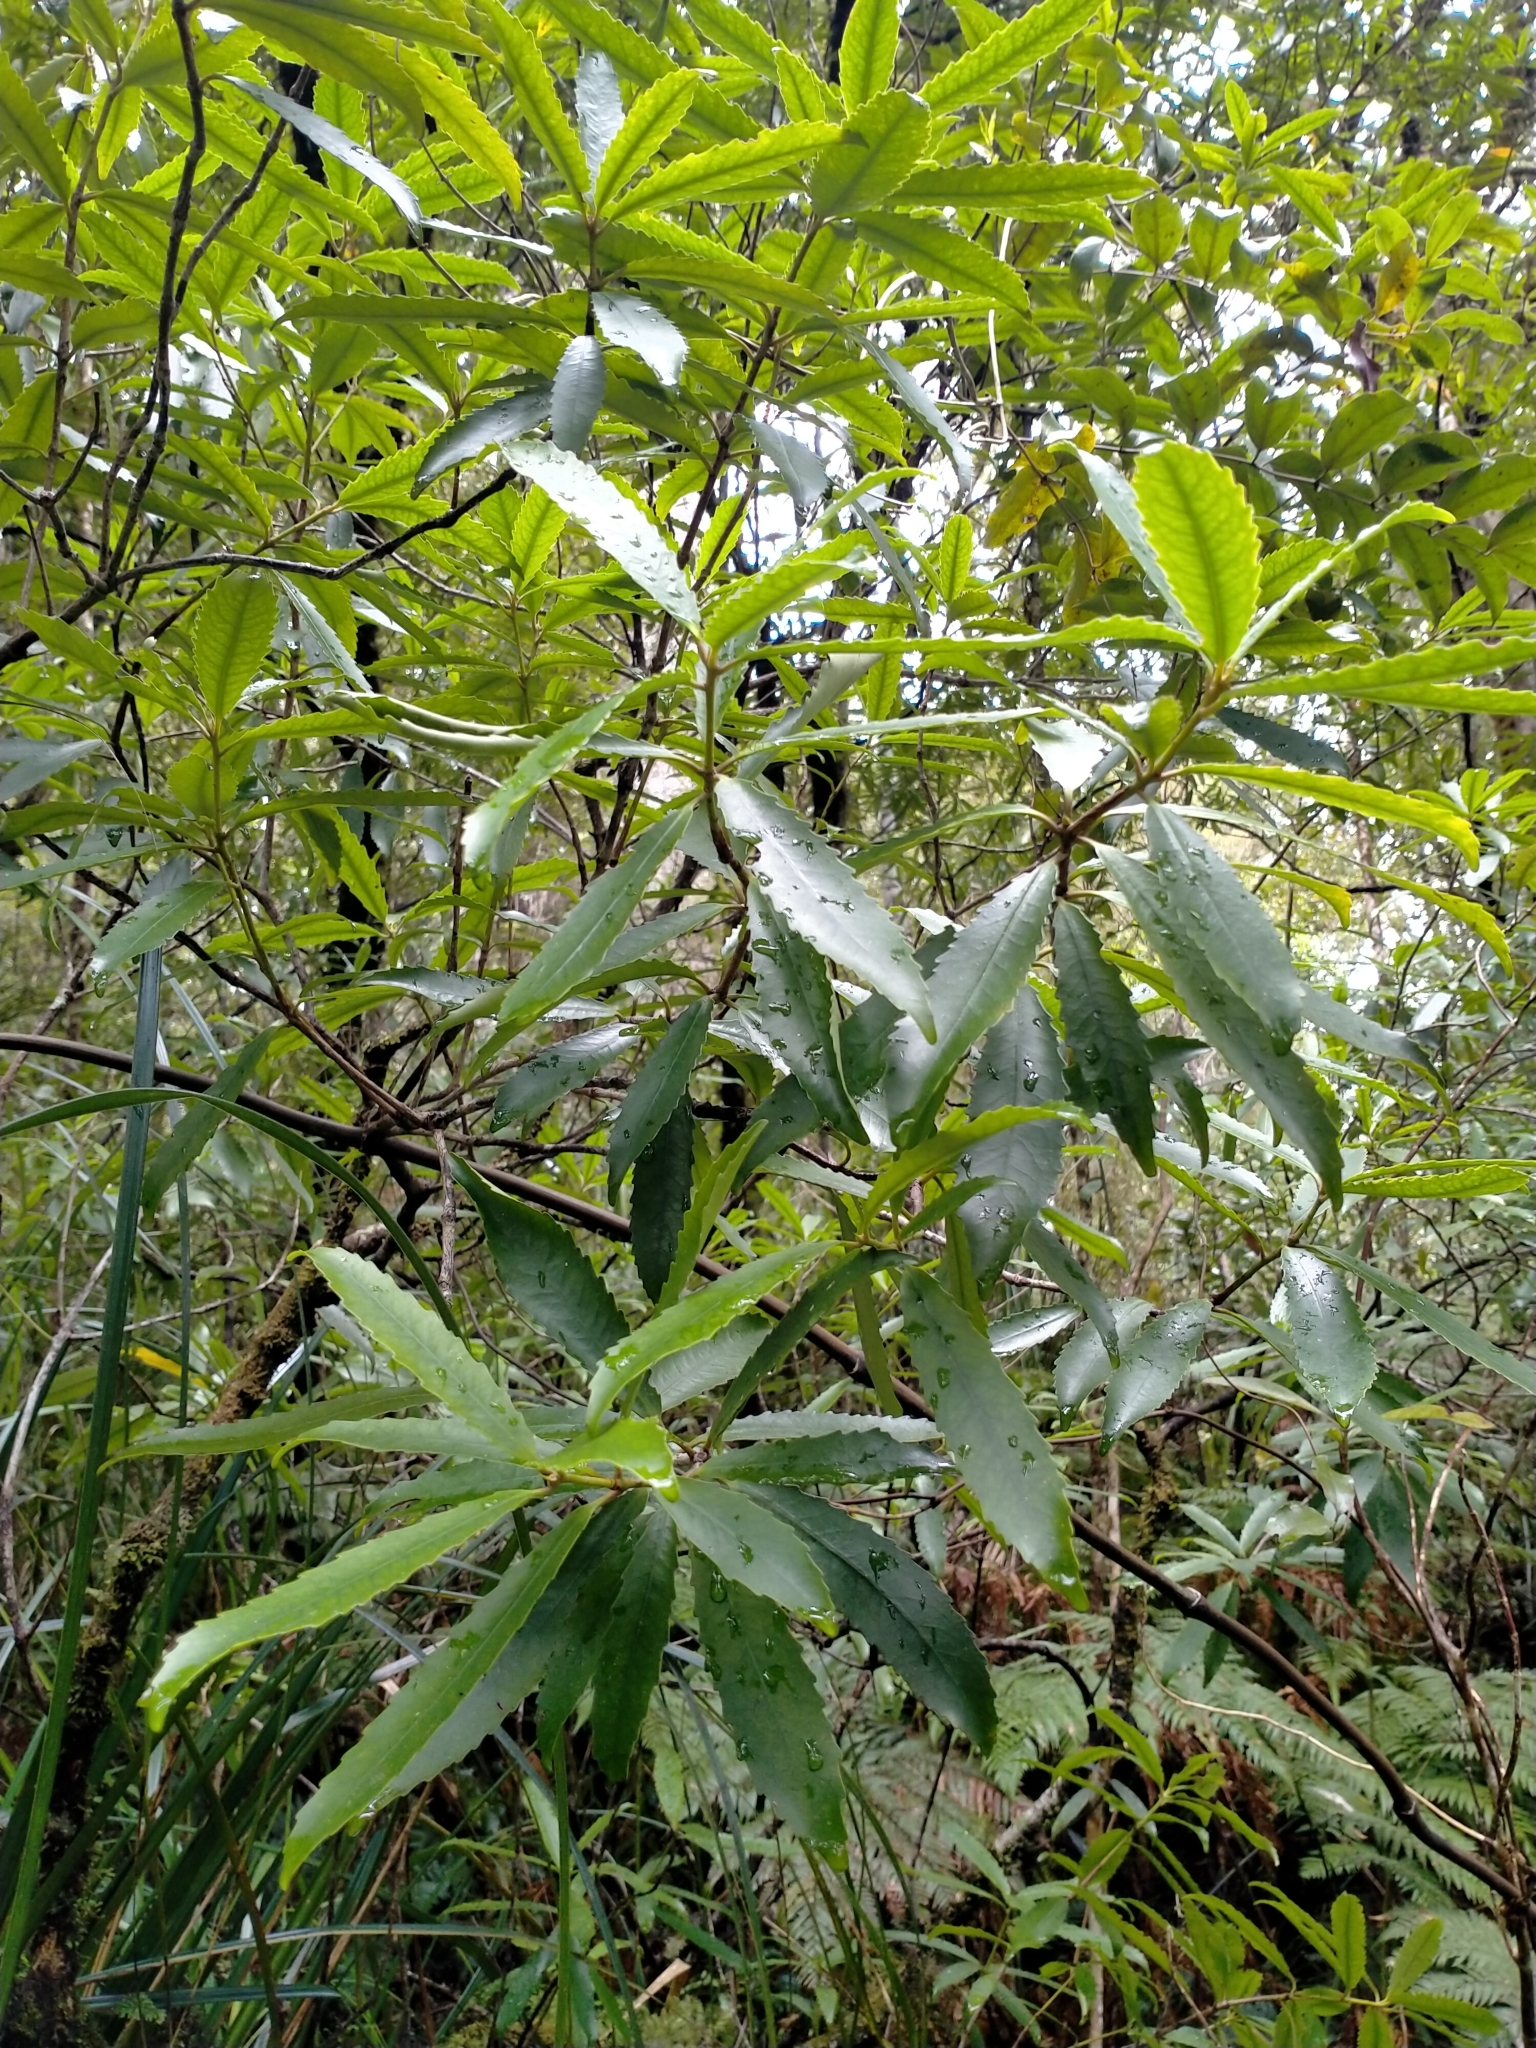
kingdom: Plantae
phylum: Tracheophyta
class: Magnoliopsida
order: Crossosomatales
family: Ixerbaceae
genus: Ixerba
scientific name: Ixerba brexioides
